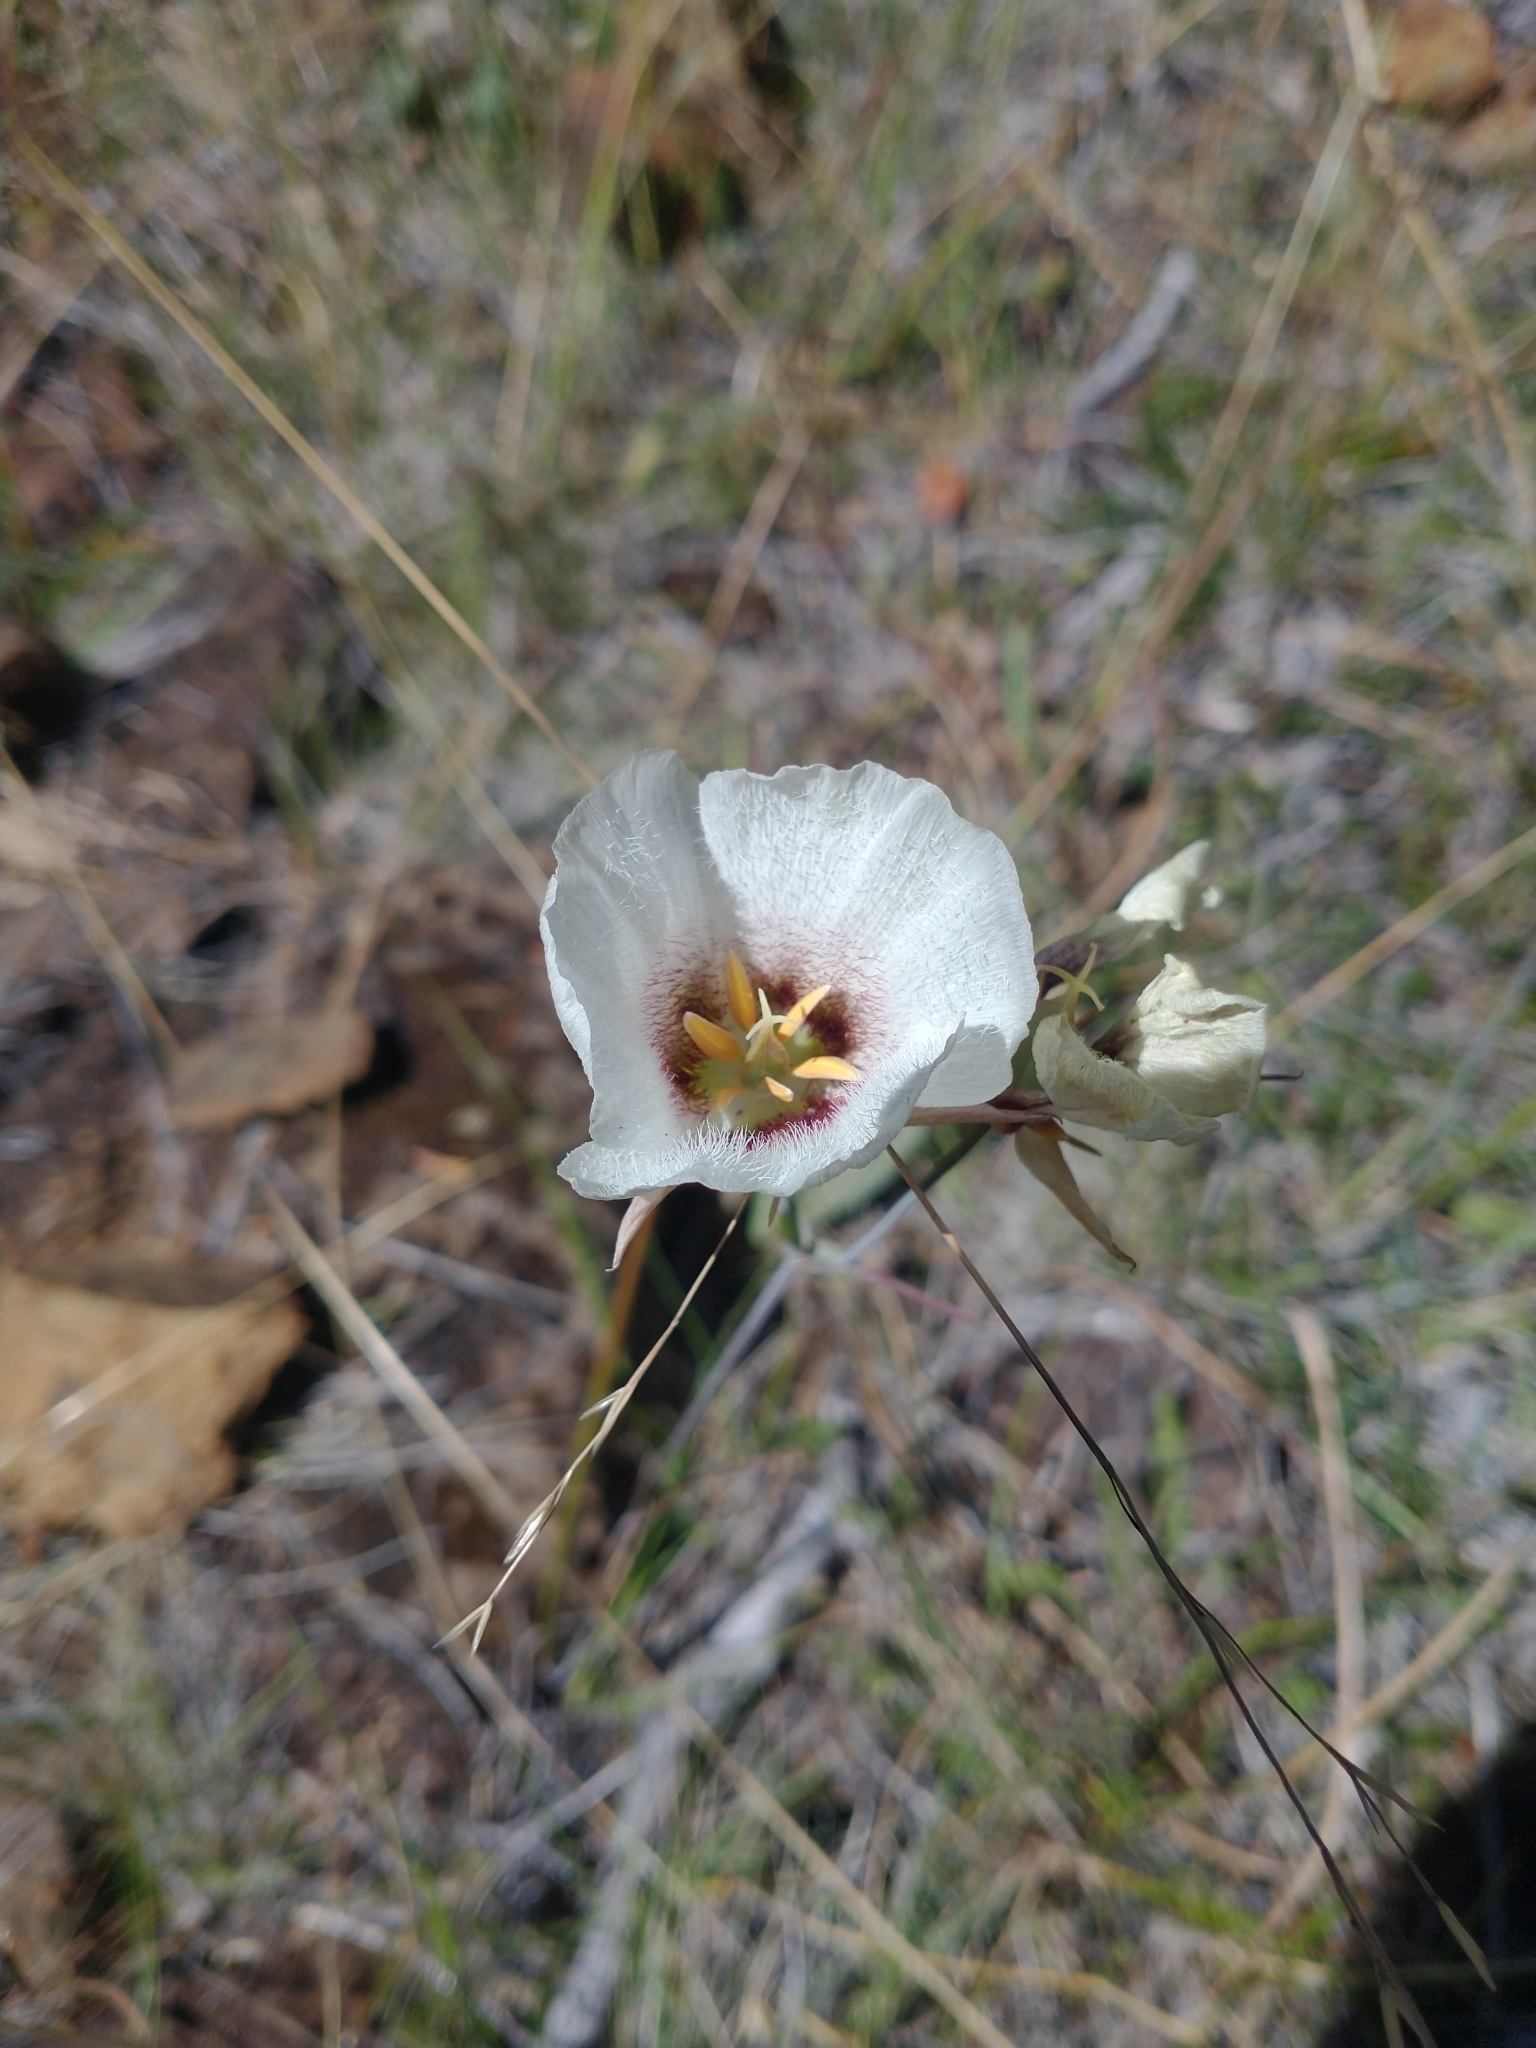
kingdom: Plantae
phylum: Tracheophyta
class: Liliopsida
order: Liliales
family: Liliaceae
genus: Calochortus
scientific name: Calochortus howellii
